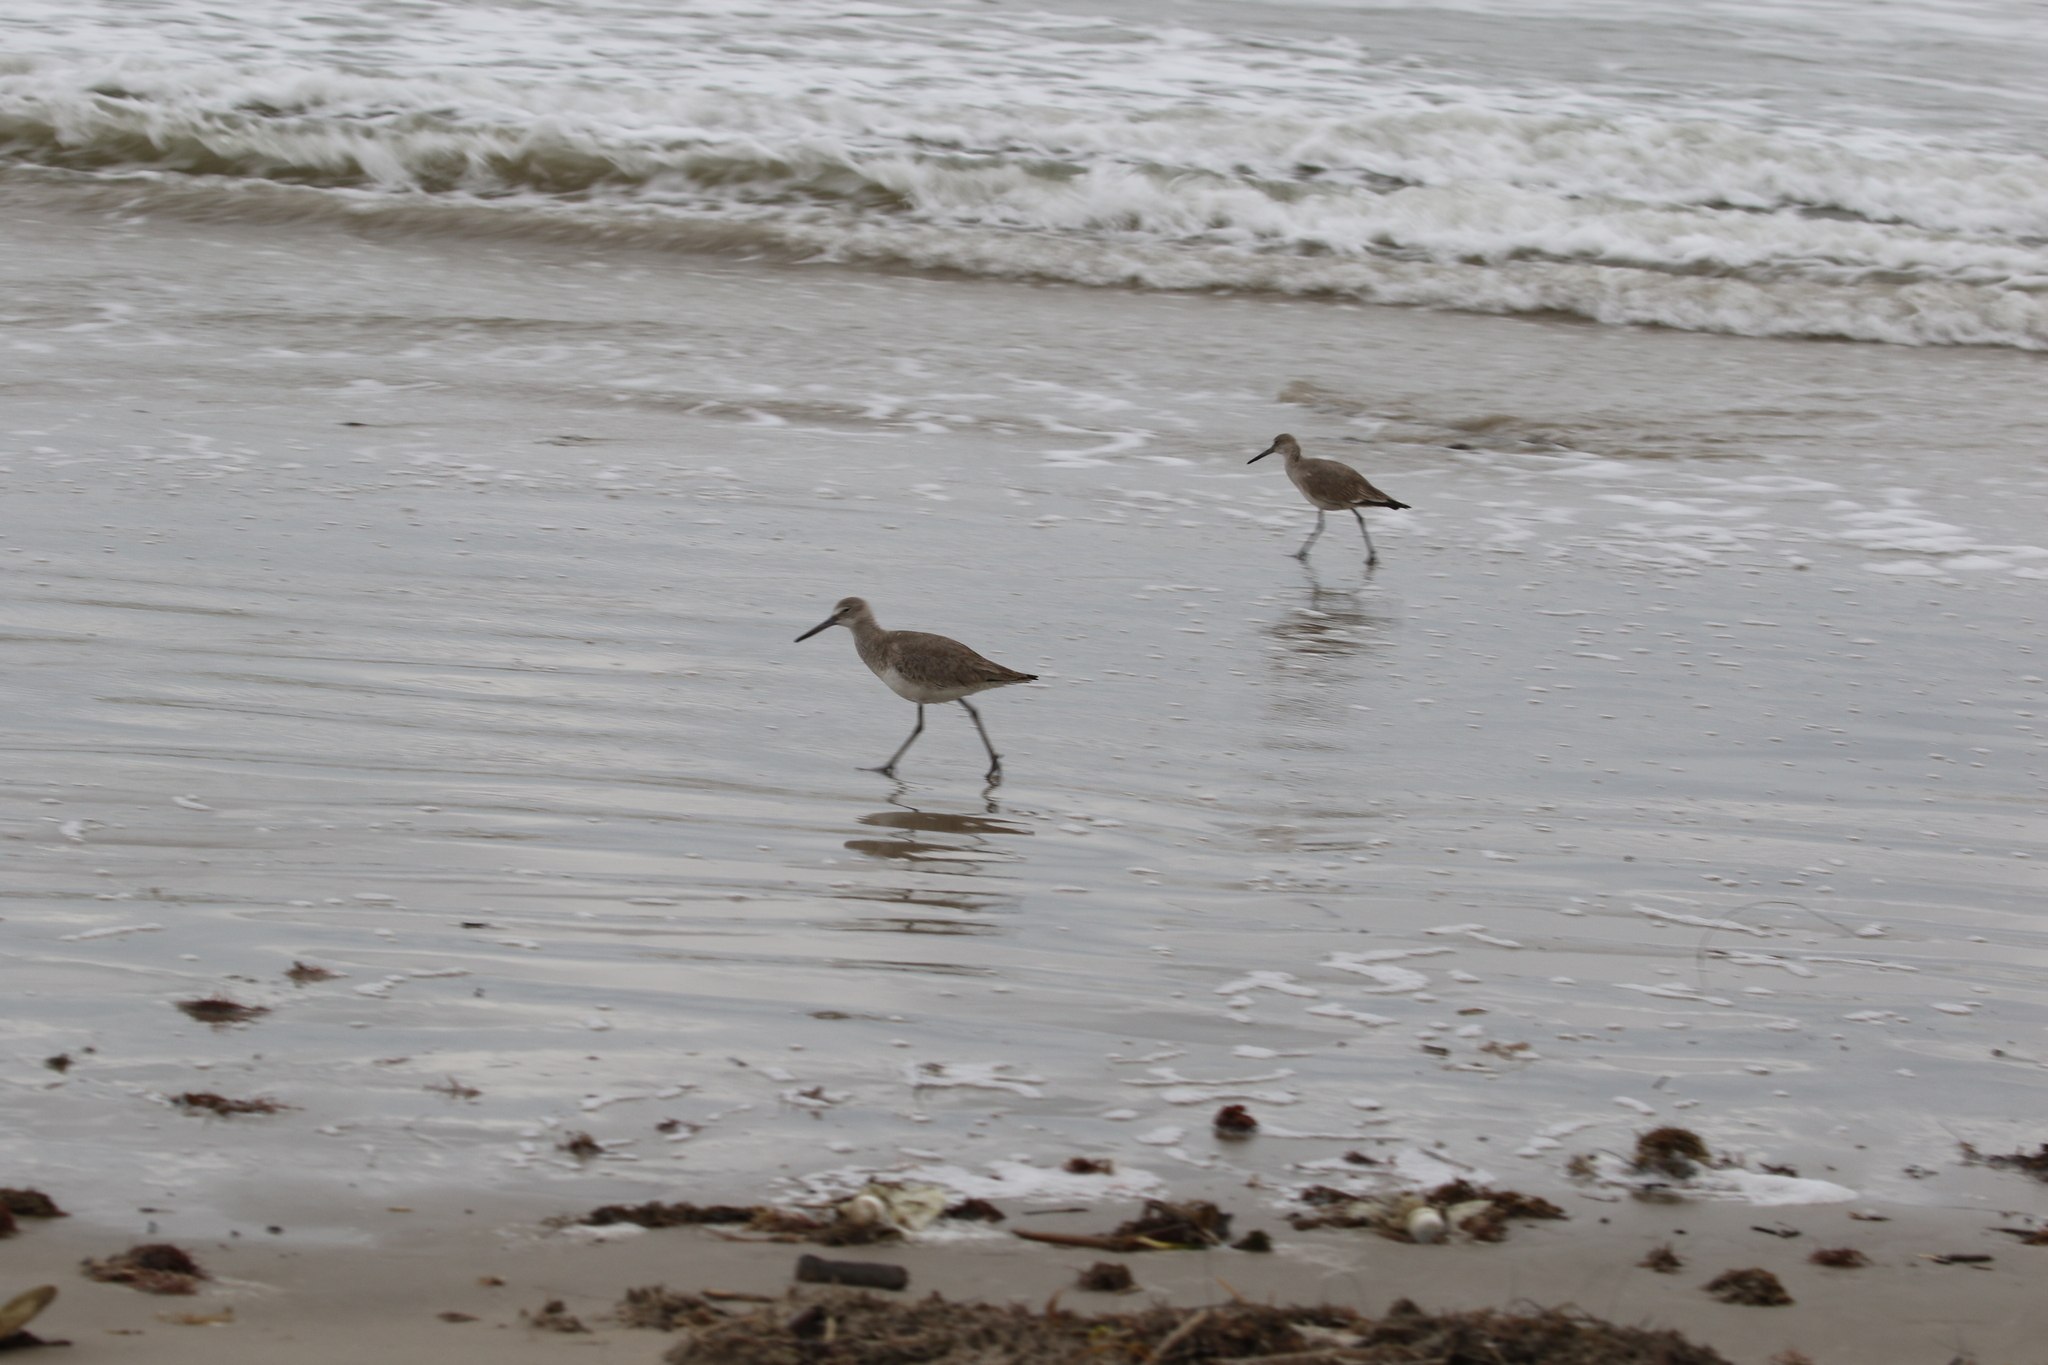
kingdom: Animalia
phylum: Chordata
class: Aves
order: Charadriiformes
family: Scolopacidae
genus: Tringa
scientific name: Tringa semipalmata
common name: Willet
